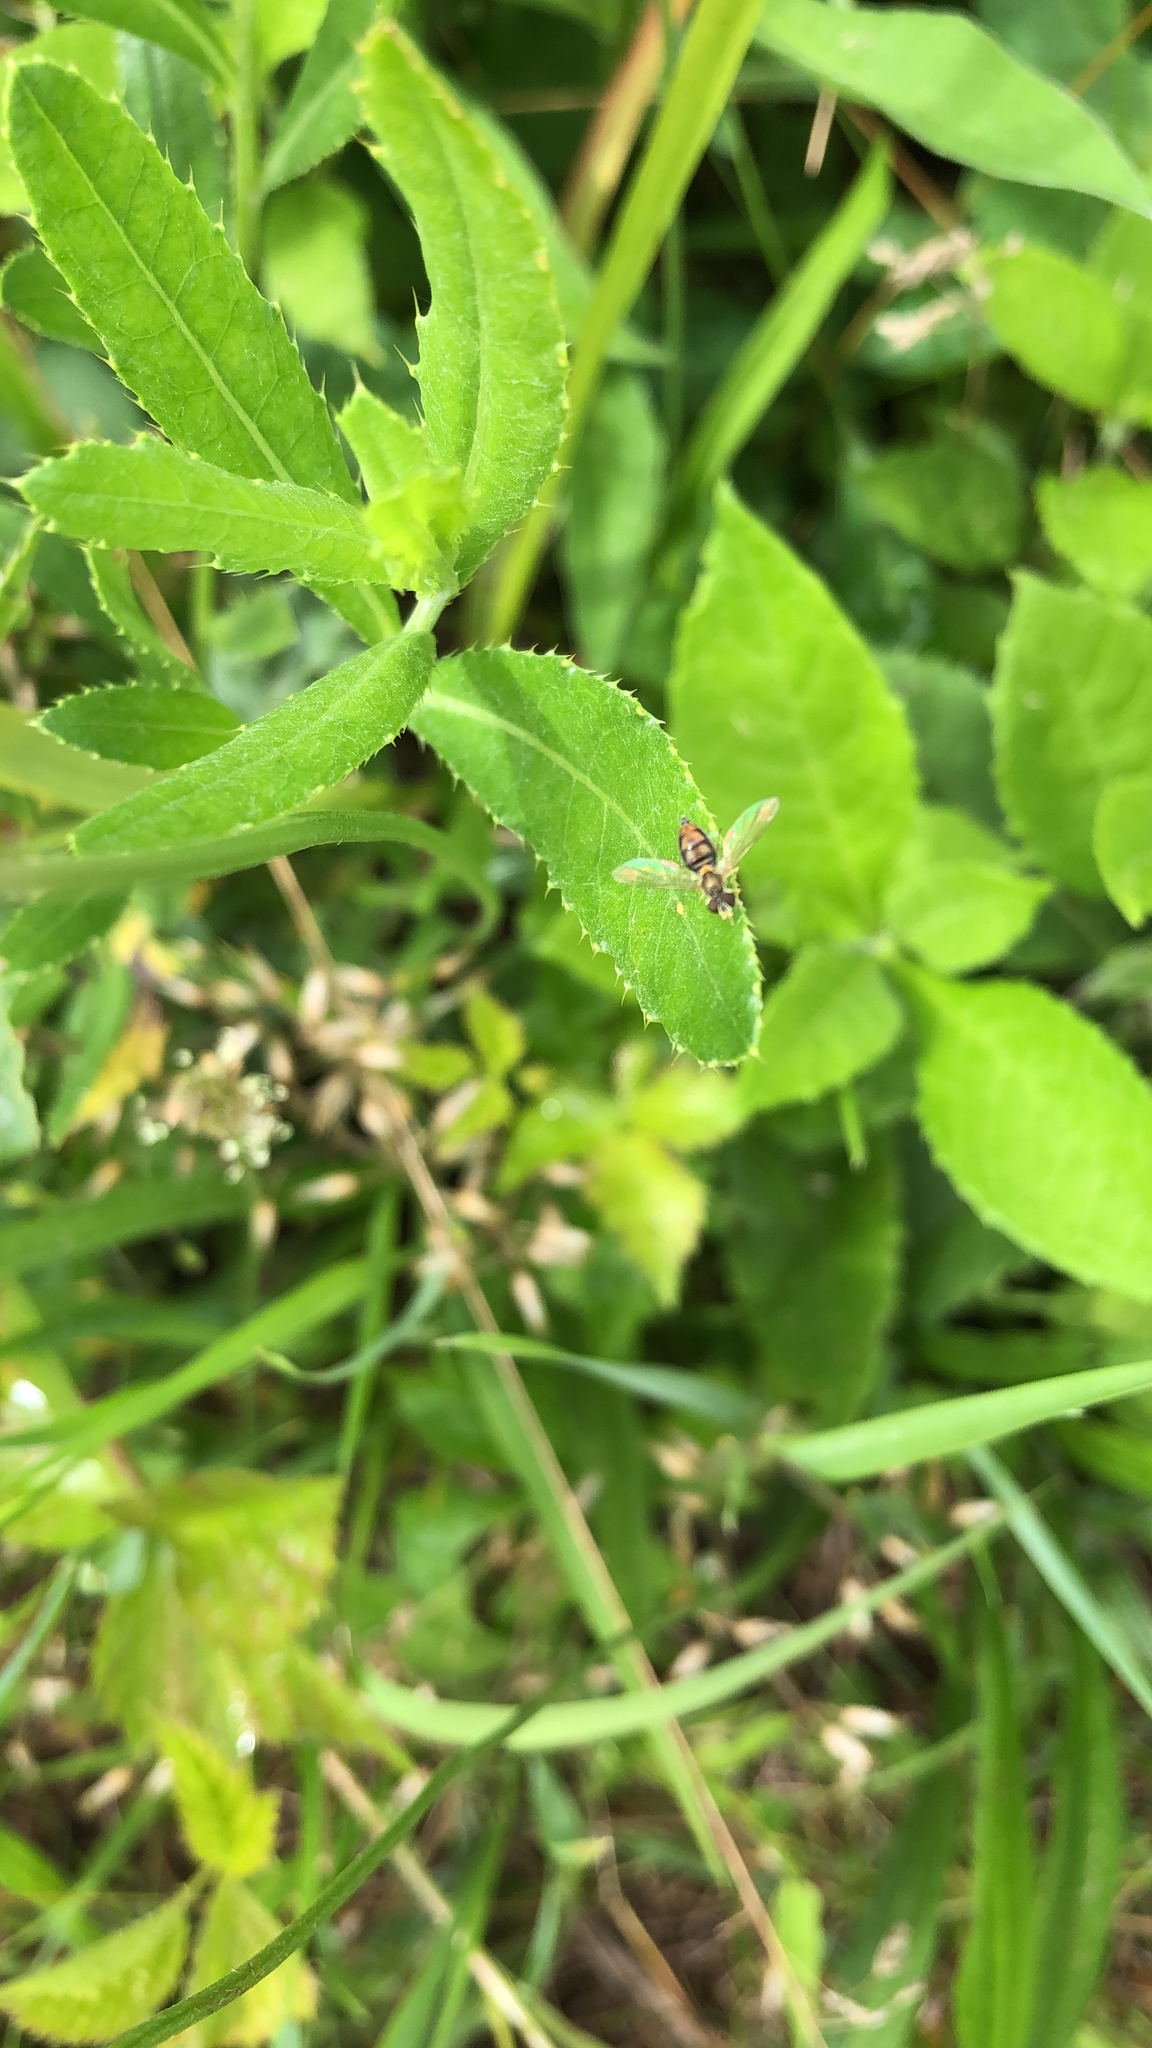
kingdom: Animalia
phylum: Arthropoda
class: Insecta
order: Diptera
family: Syrphidae
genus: Toxomerus
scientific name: Toxomerus marginatus
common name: Syrphid fly
